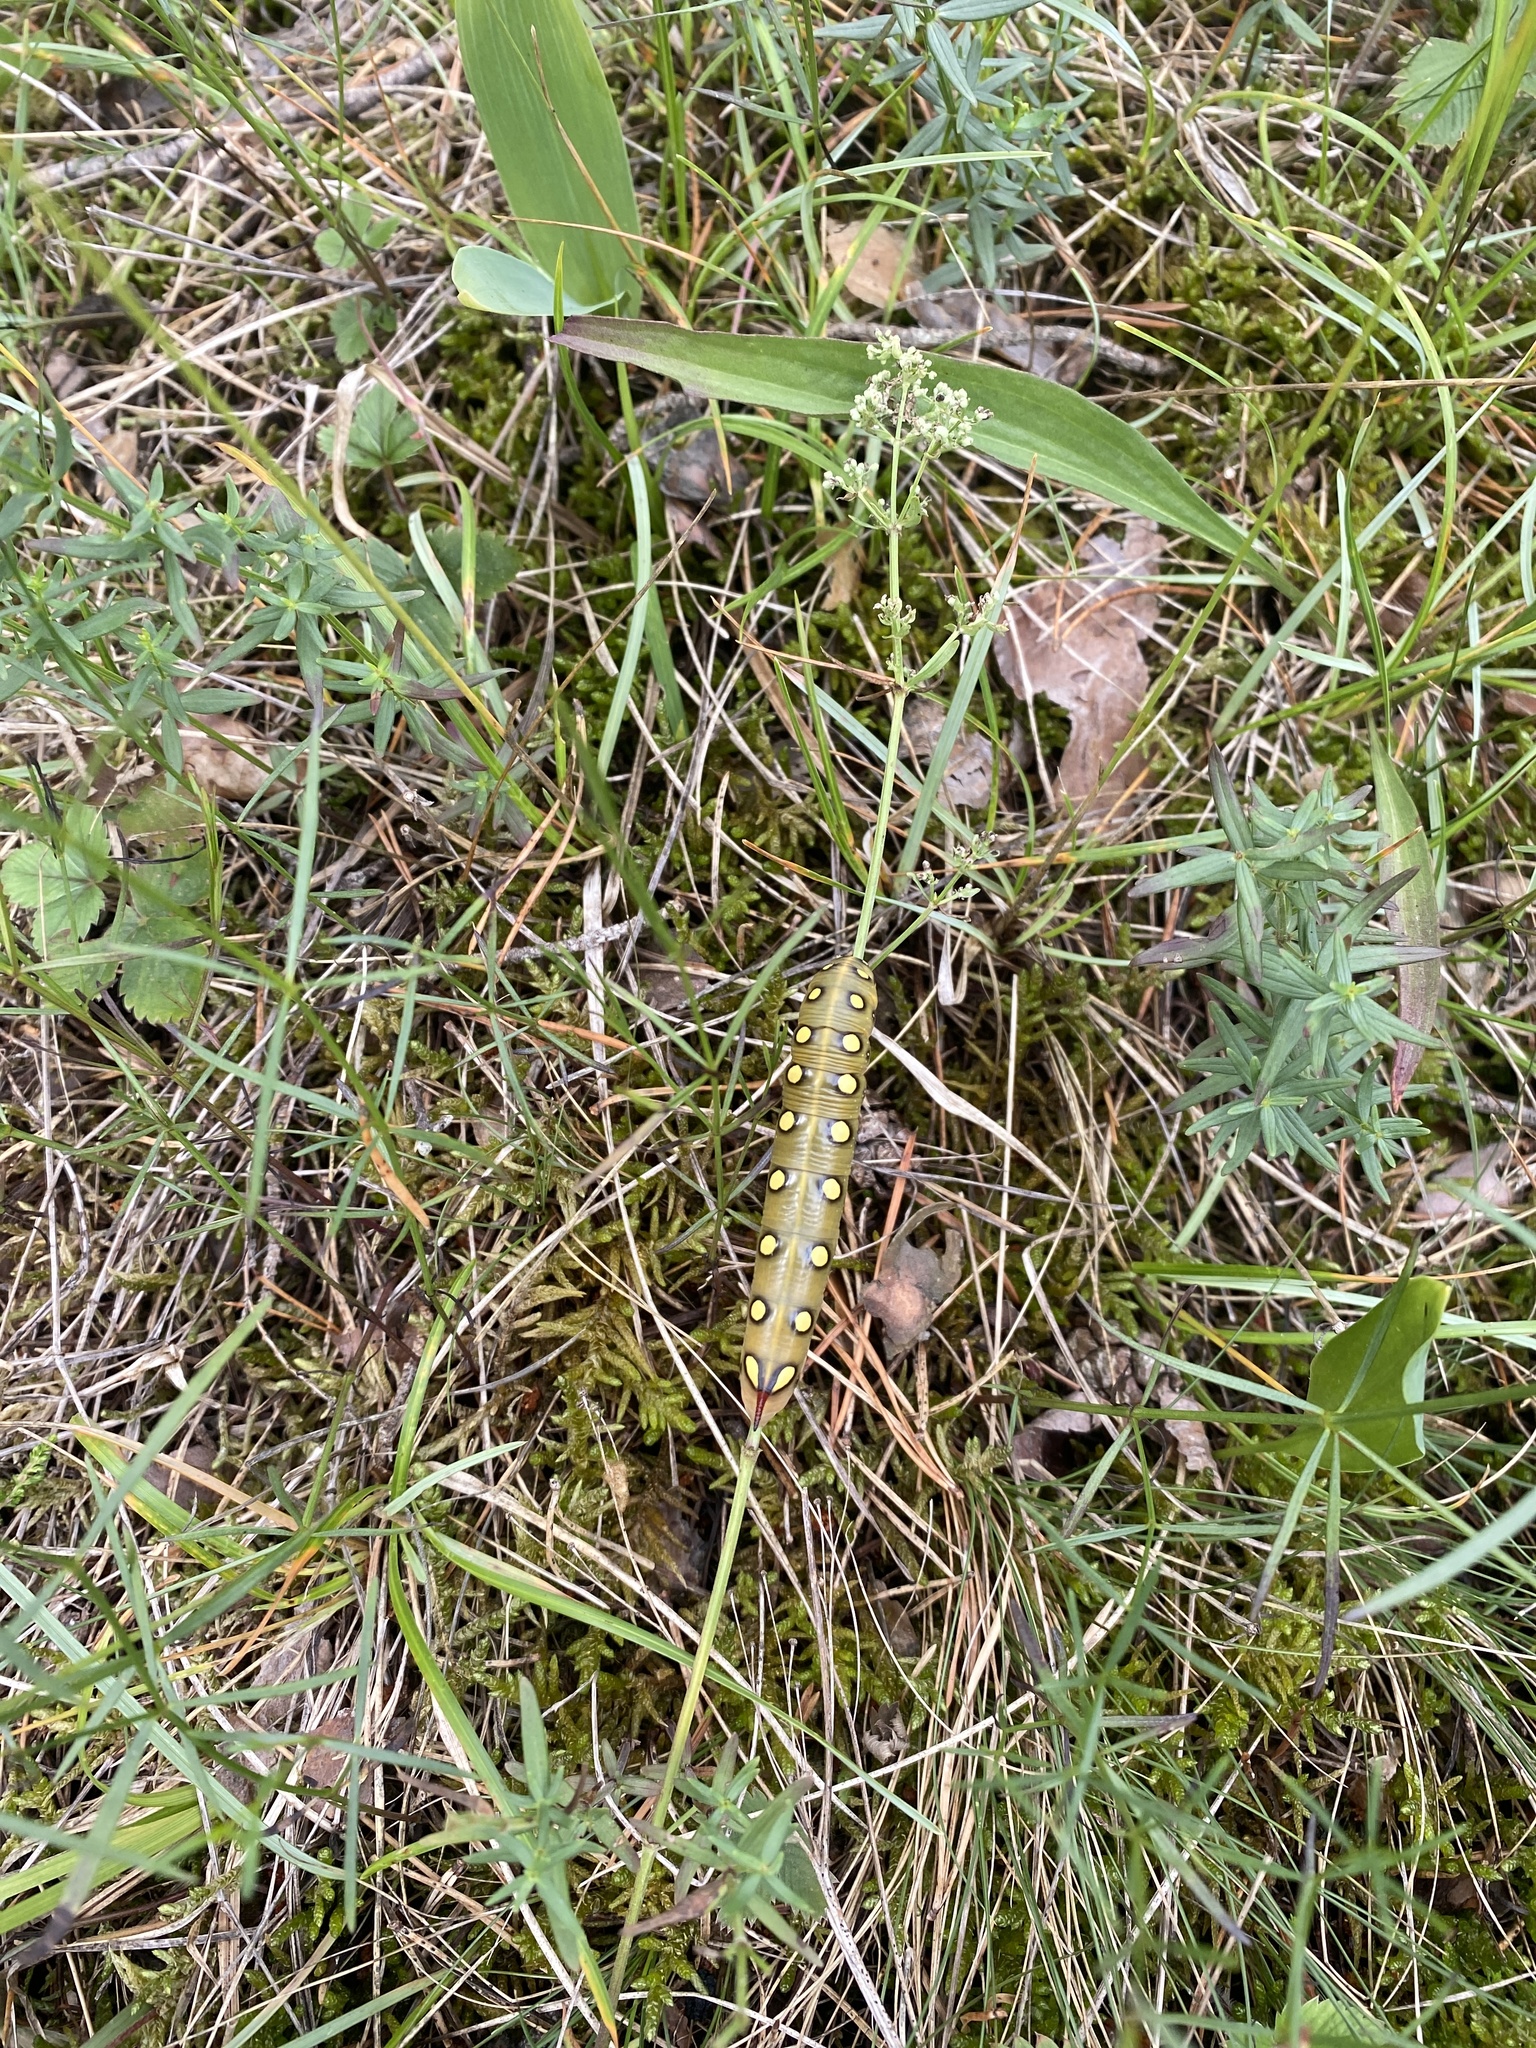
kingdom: Animalia
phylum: Arthropoda
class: Insecta
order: Lepidoptera
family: Sphingidae
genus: Hyles
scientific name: Hyles gallii
